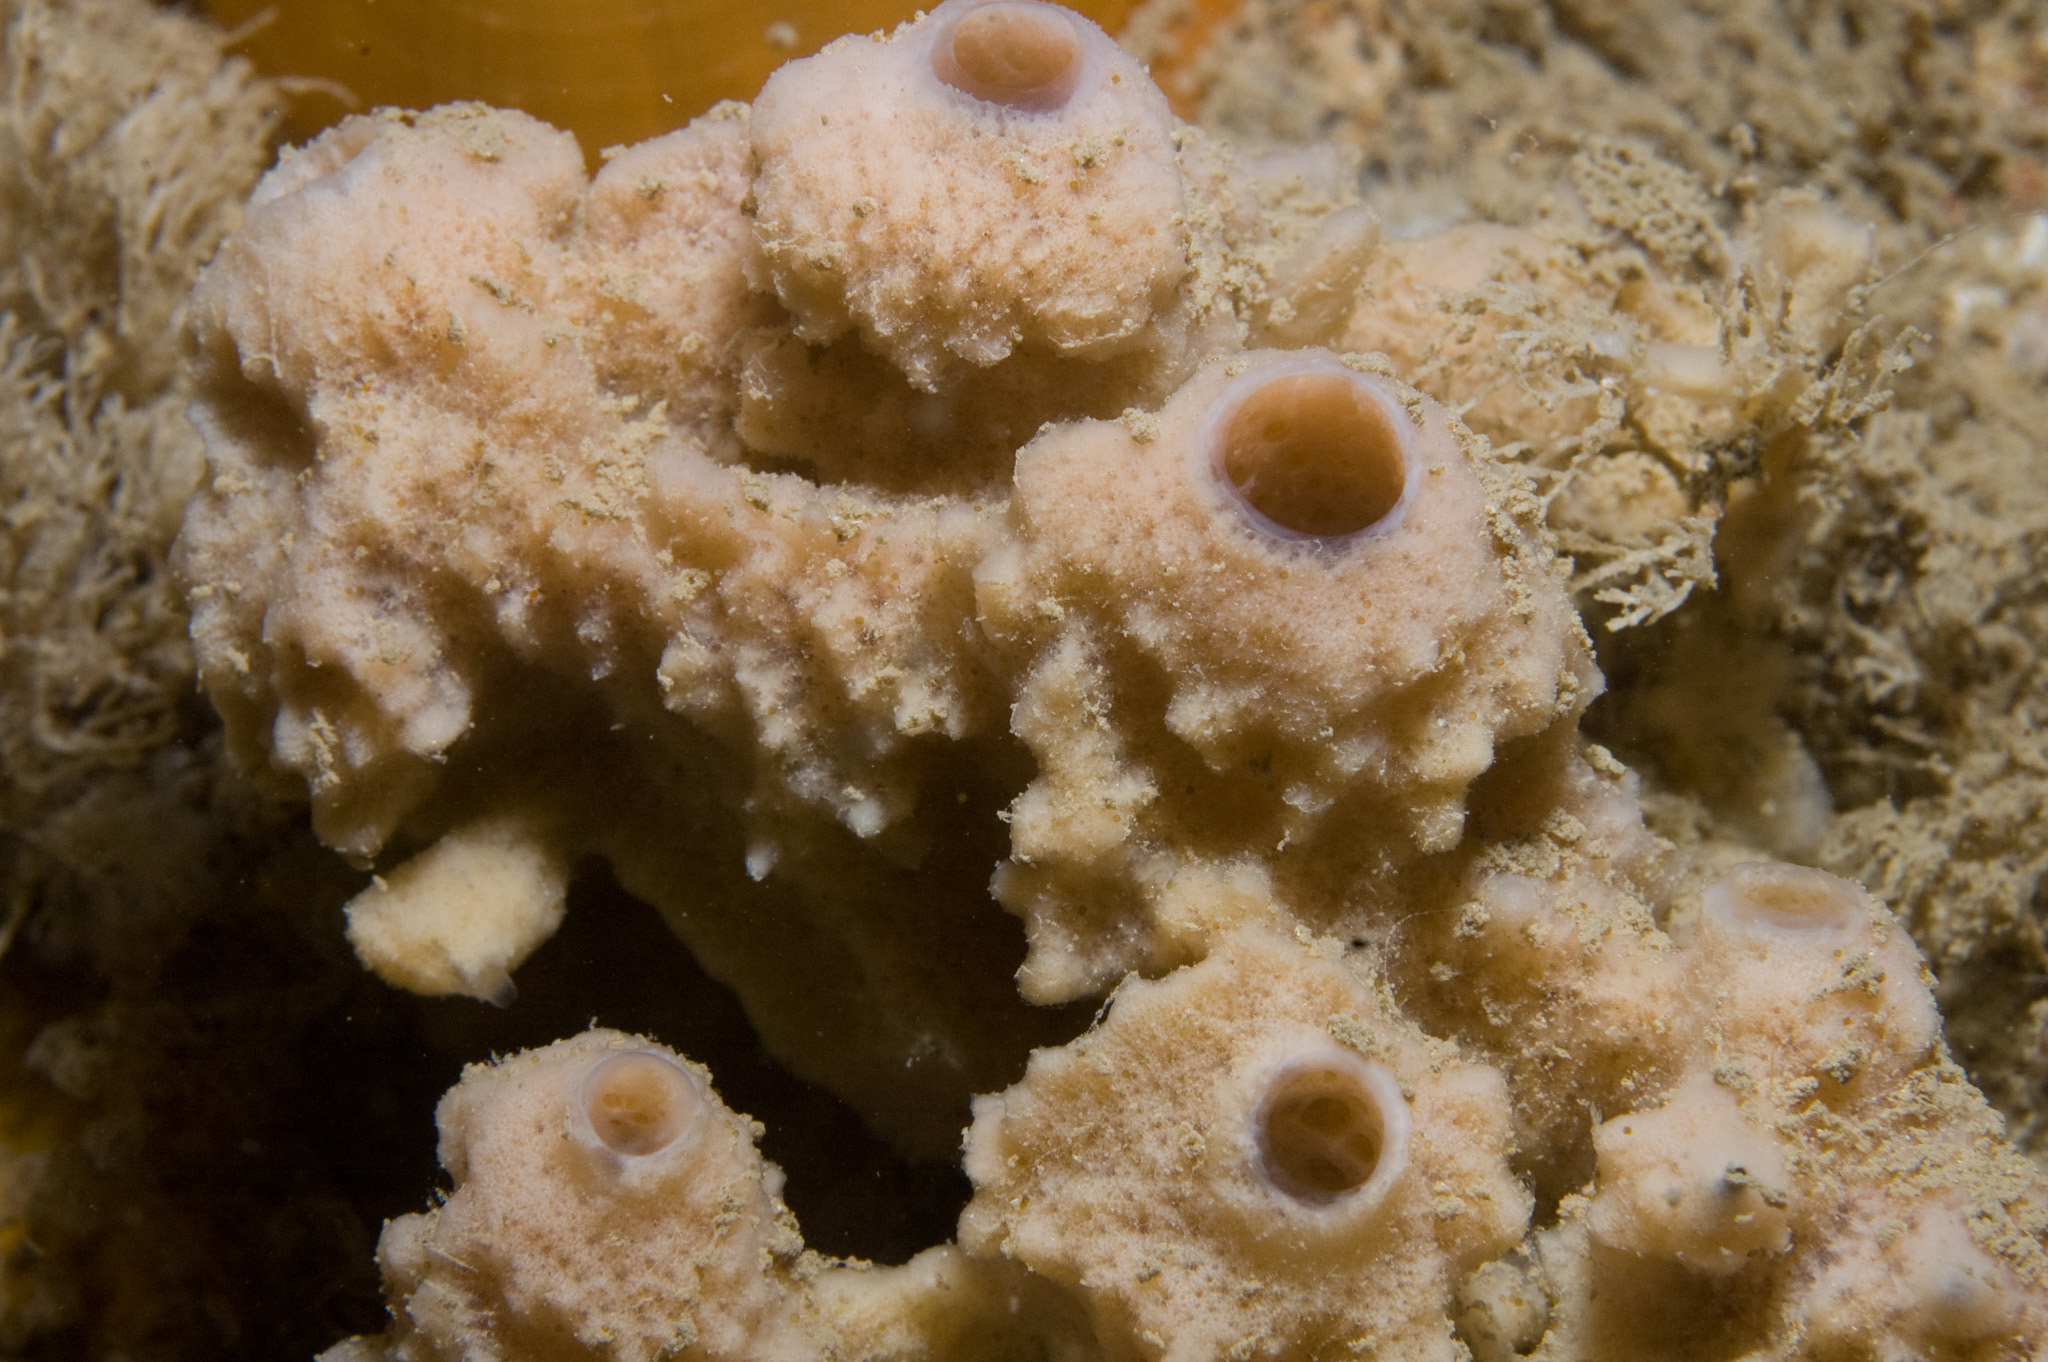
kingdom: Animalia
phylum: Porifera
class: Demospongiae
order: Haplosclerida
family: Chalinidae
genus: Haliclona
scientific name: Haliclona viscosa
